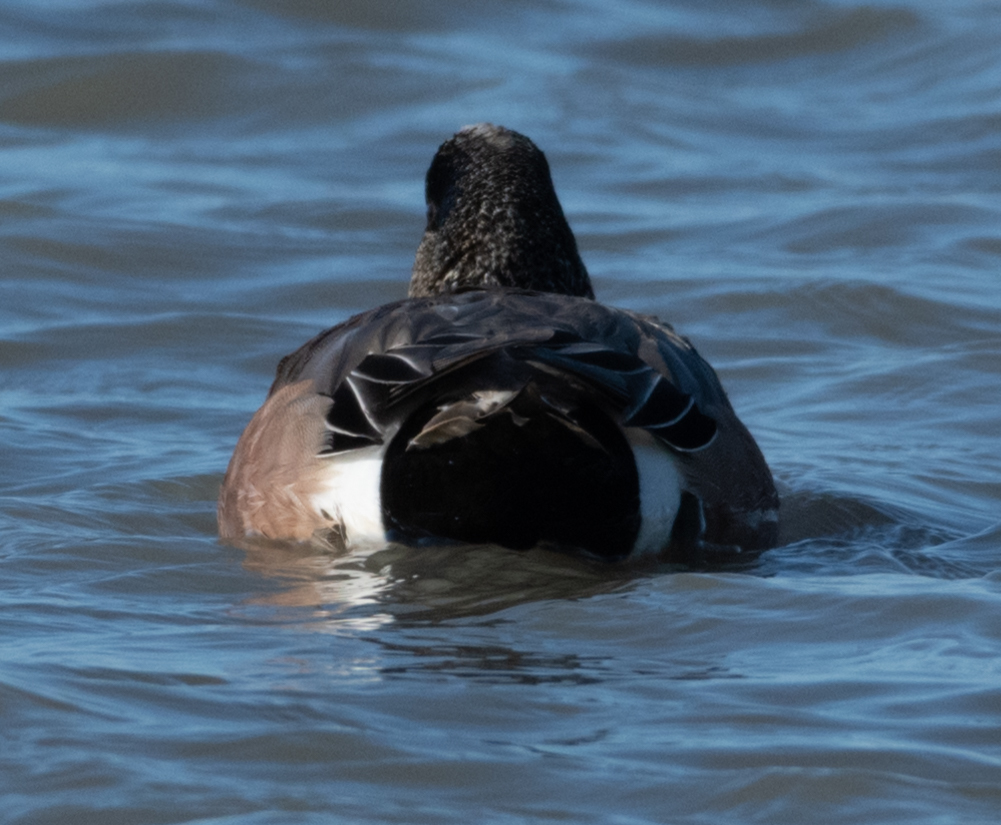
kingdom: Animalia
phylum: Chordata
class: Aves
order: Anseriformes
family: Anatidae
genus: Mareca
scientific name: Mareca americana
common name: American wigeon
